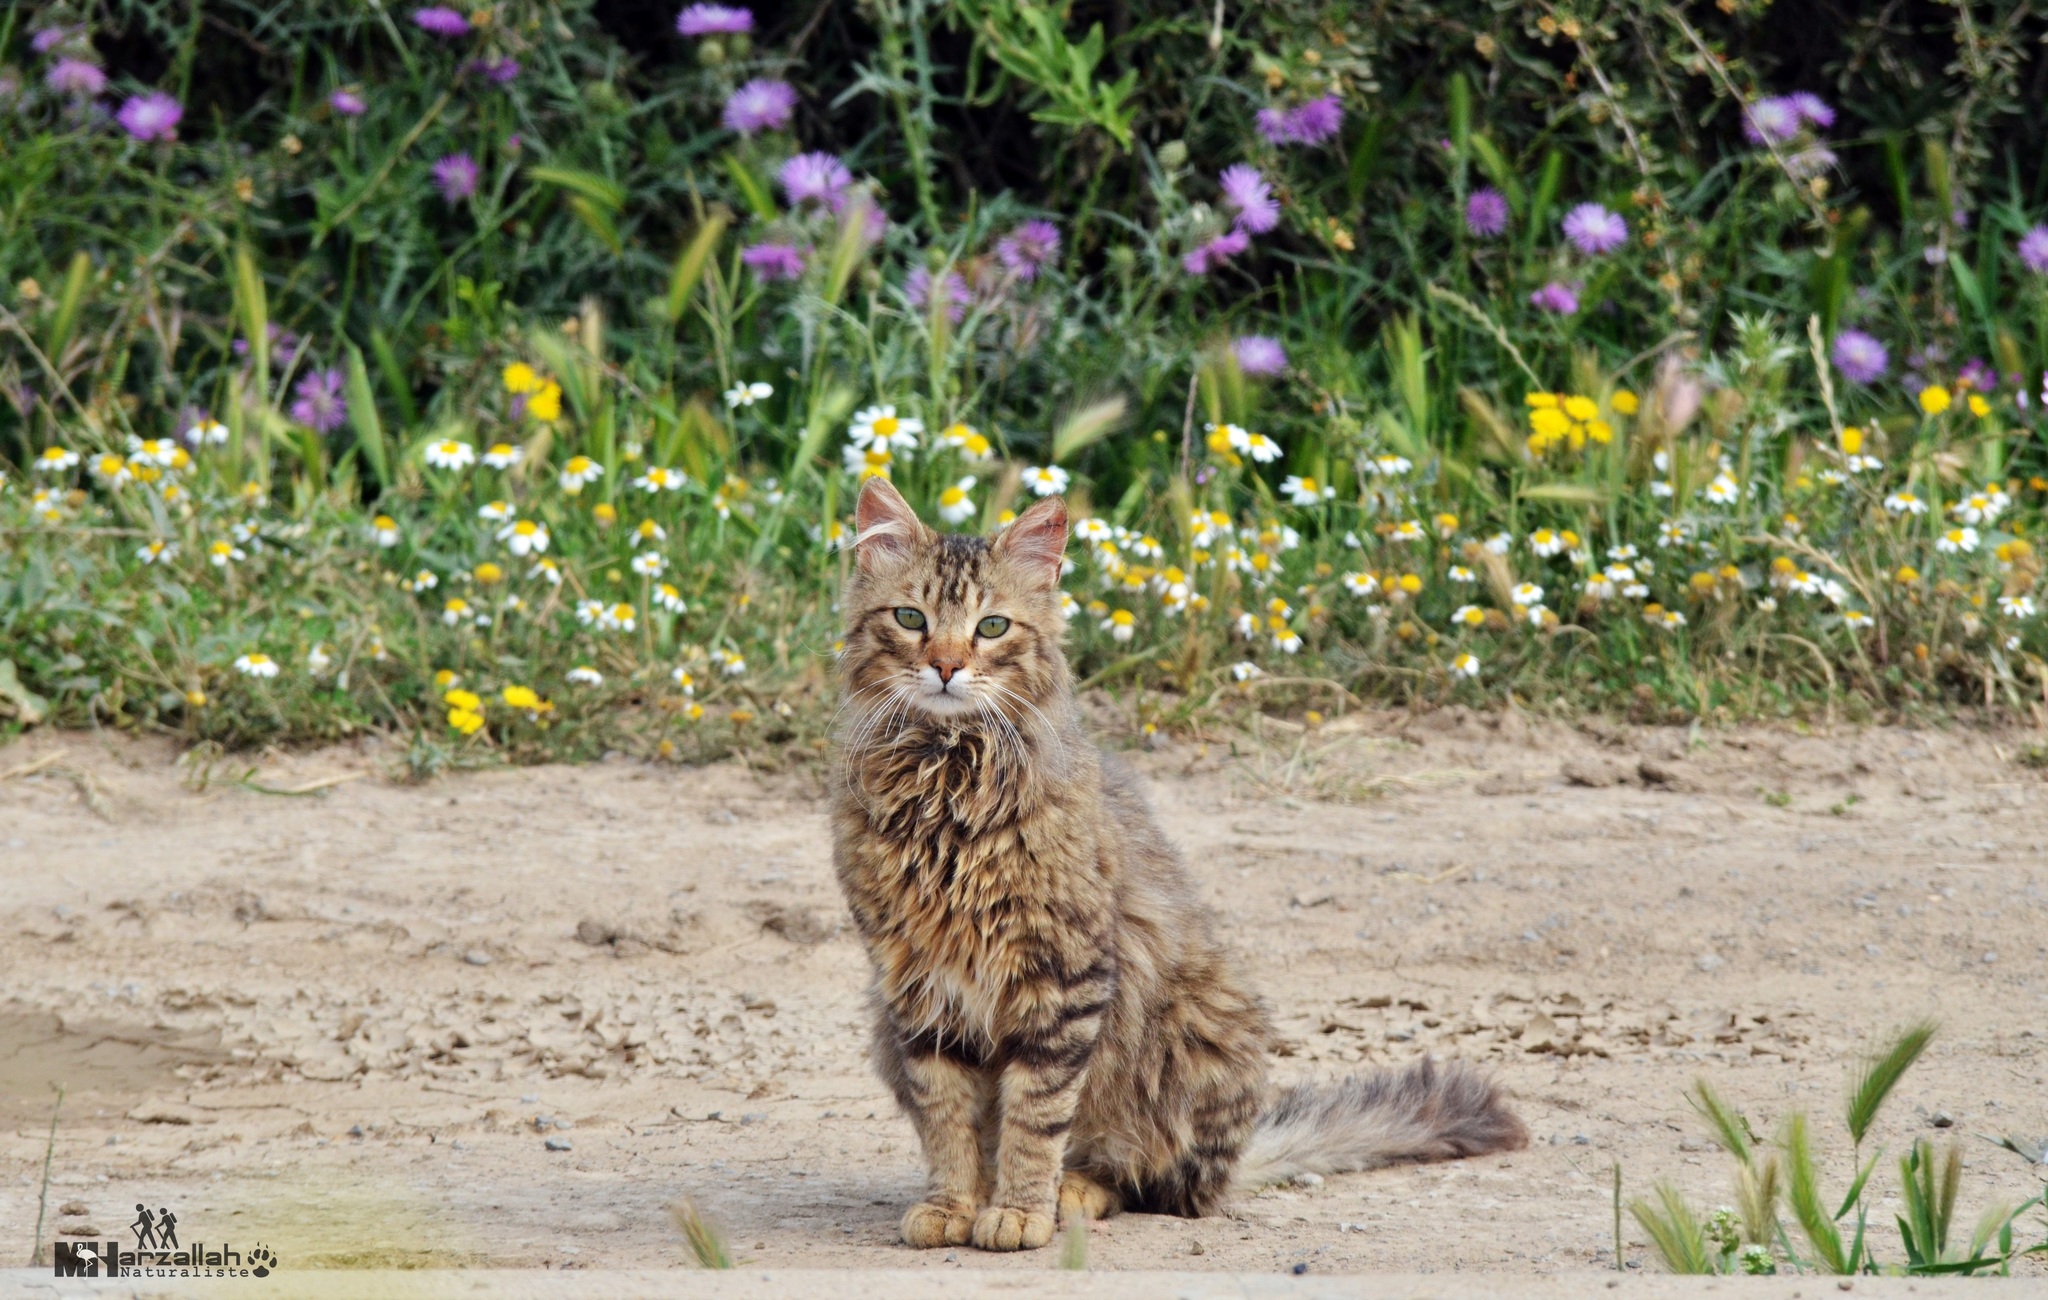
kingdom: Animalia
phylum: Chordata
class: Mammalia
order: Carnivora
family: Felidae
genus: Felis
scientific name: Felis catus
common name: Domestic cat
